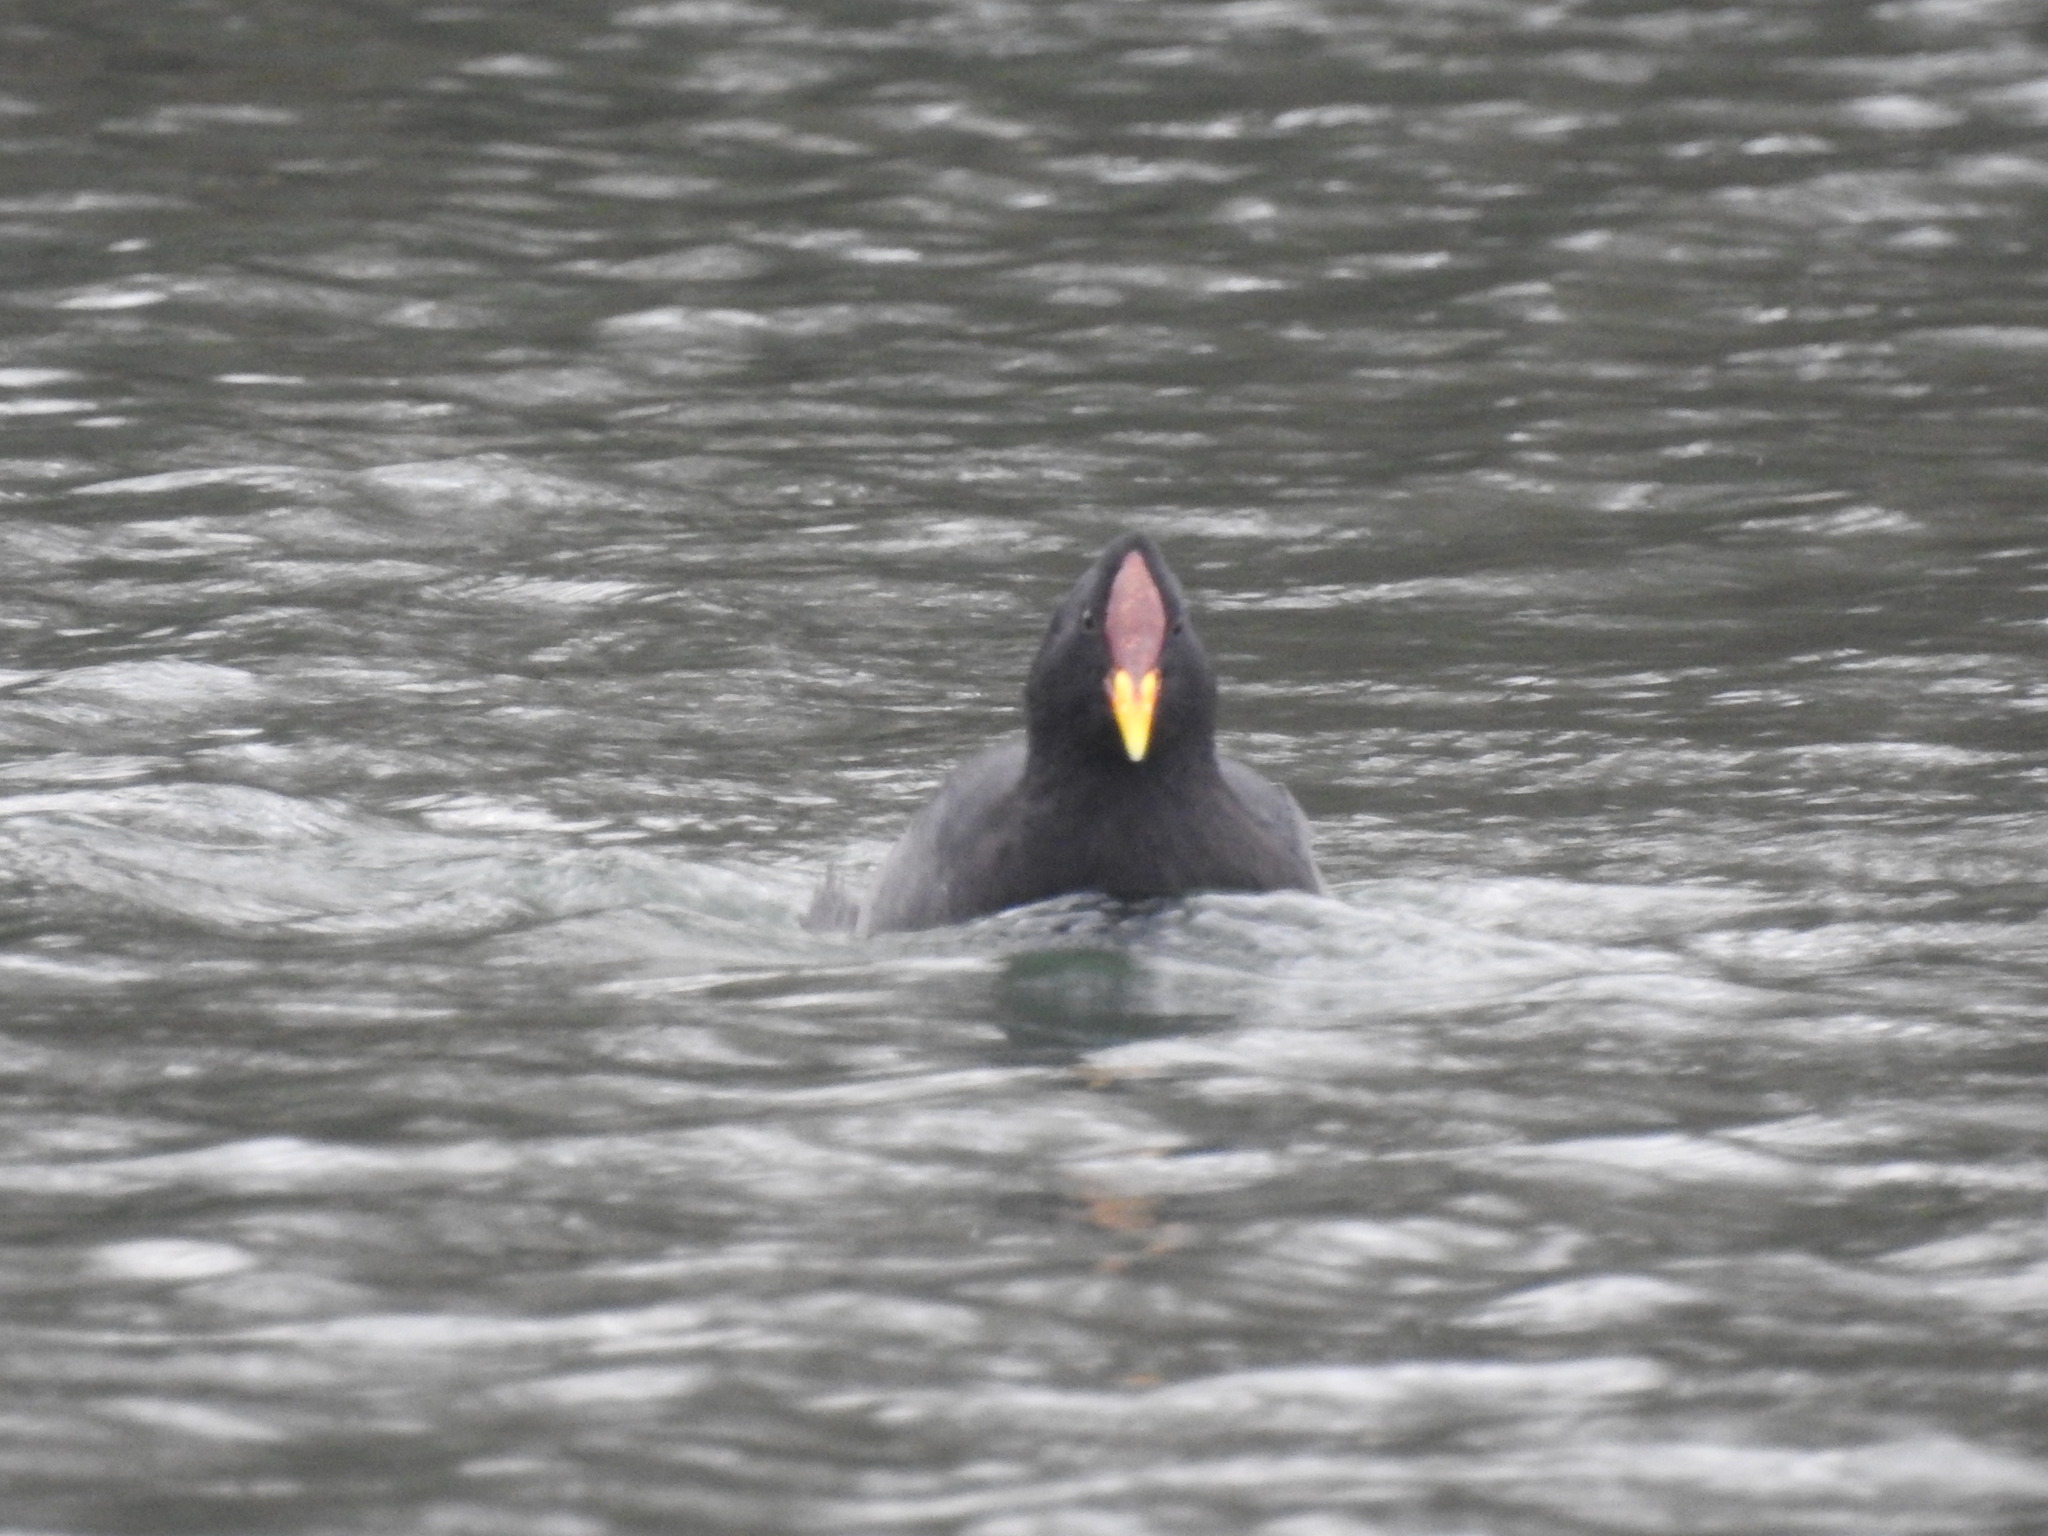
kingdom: Animalia
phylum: Chordata
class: Aves
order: Gruiformes
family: Rallidae
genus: Fulica
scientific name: Fulica rufifrons
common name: Red-fronted coot
